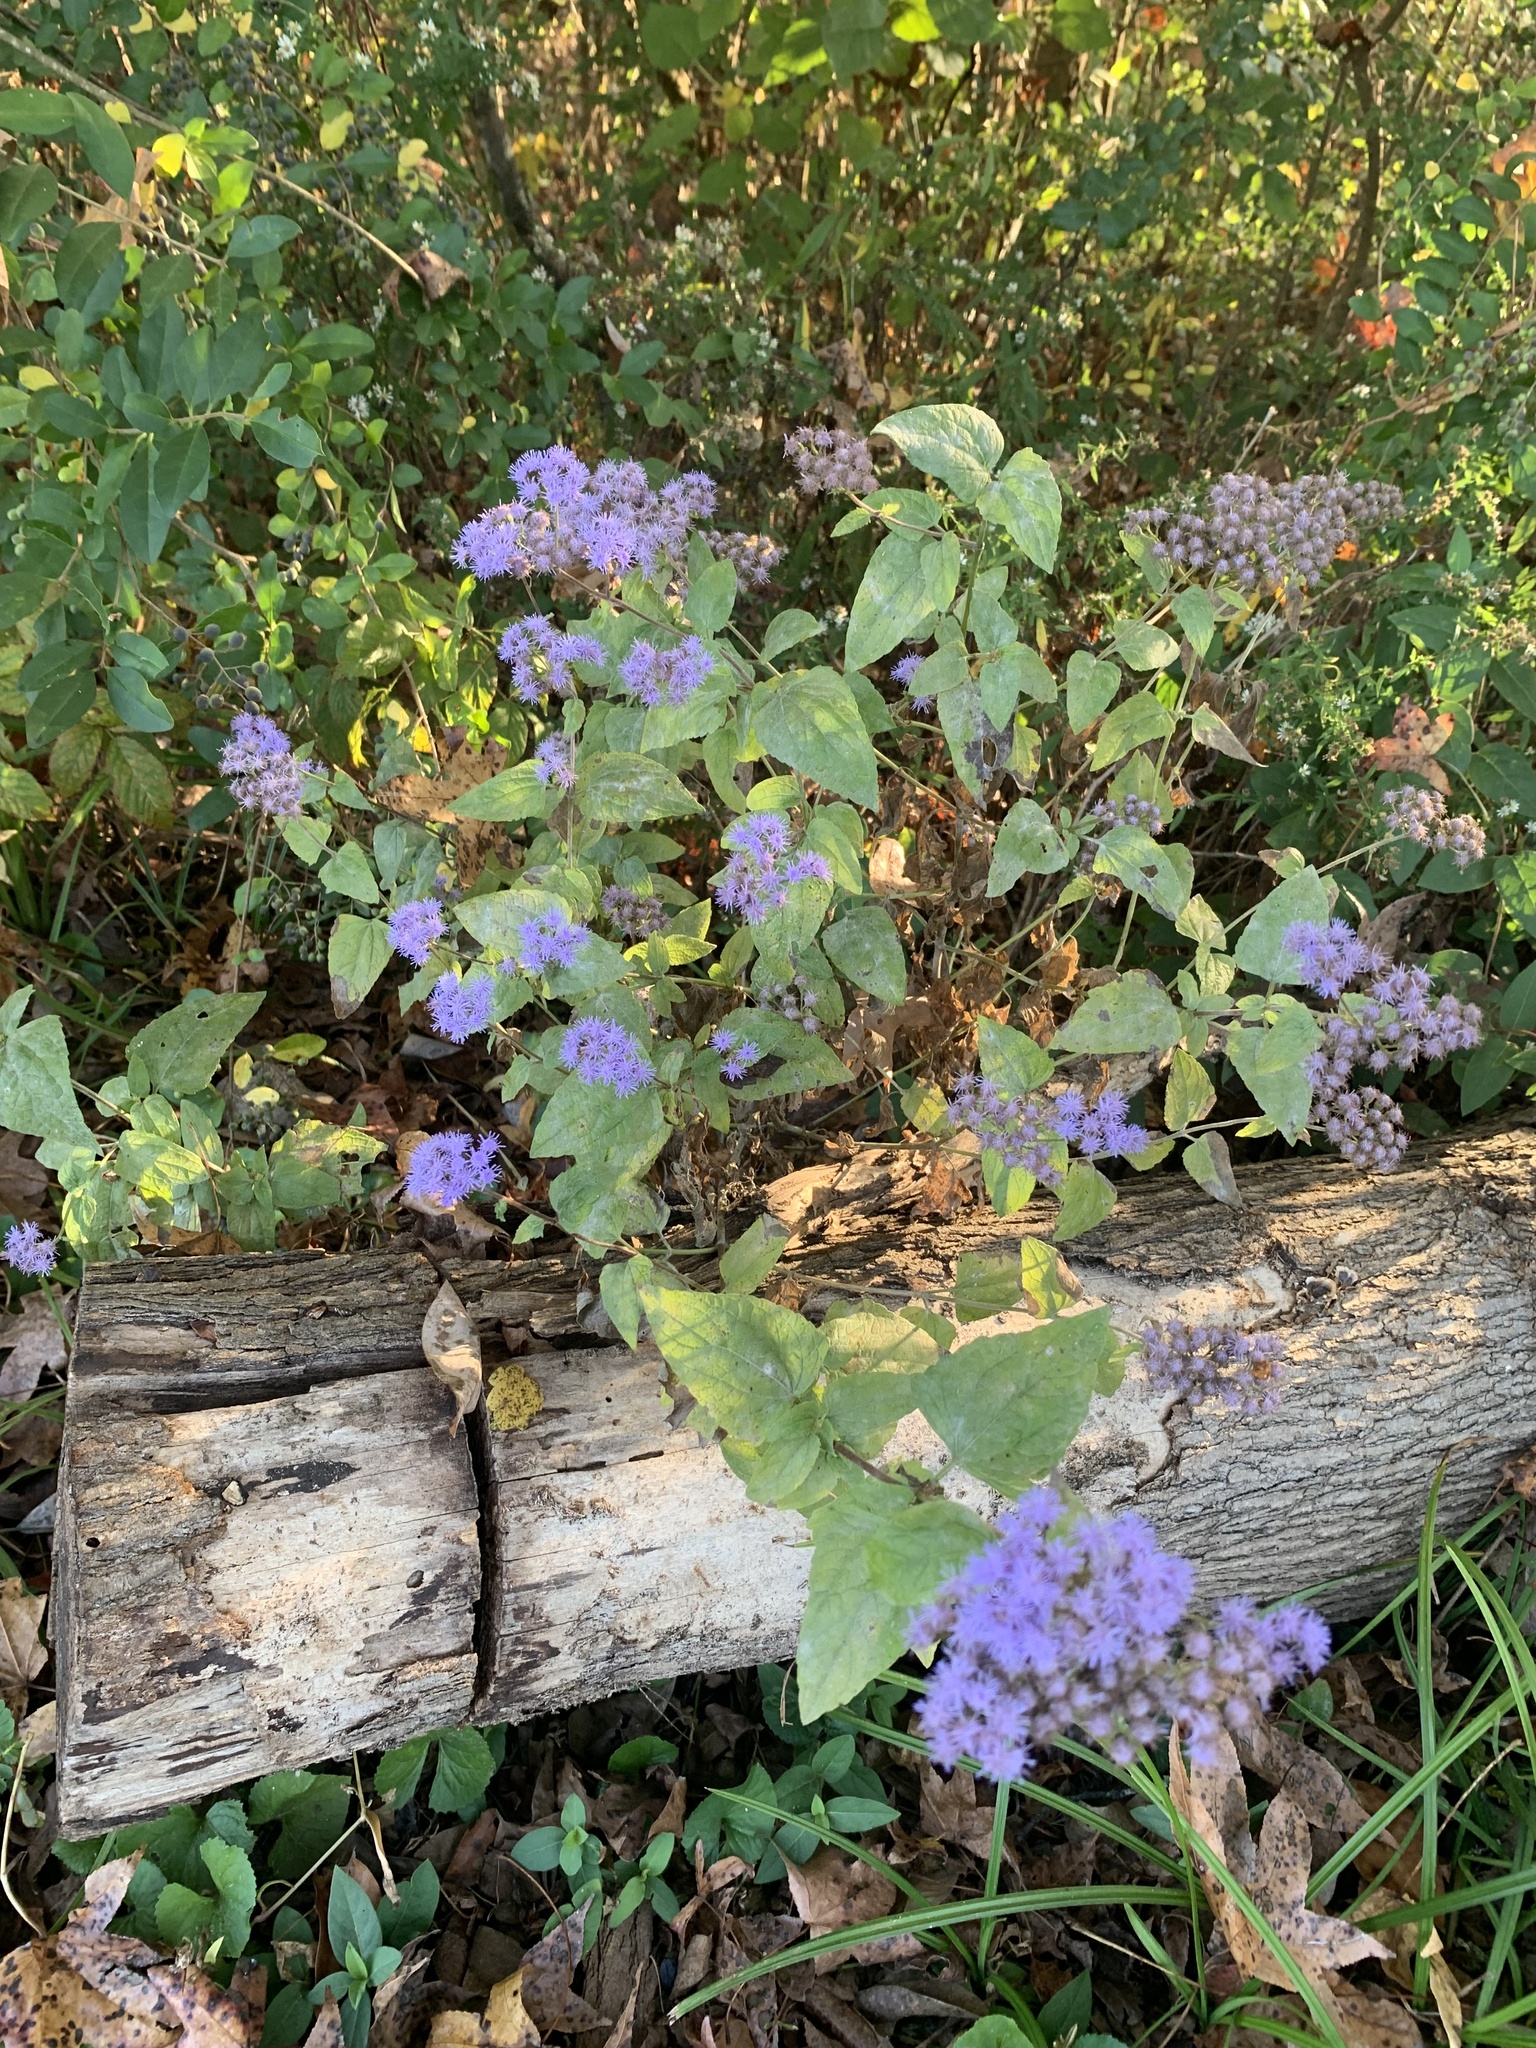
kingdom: Plantae
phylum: Tracheophyta
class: Magnoliopsida
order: Asterales
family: Asteraceae
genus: Conoclinium
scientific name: Conoclinium coelestinum
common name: Blue mistflower
